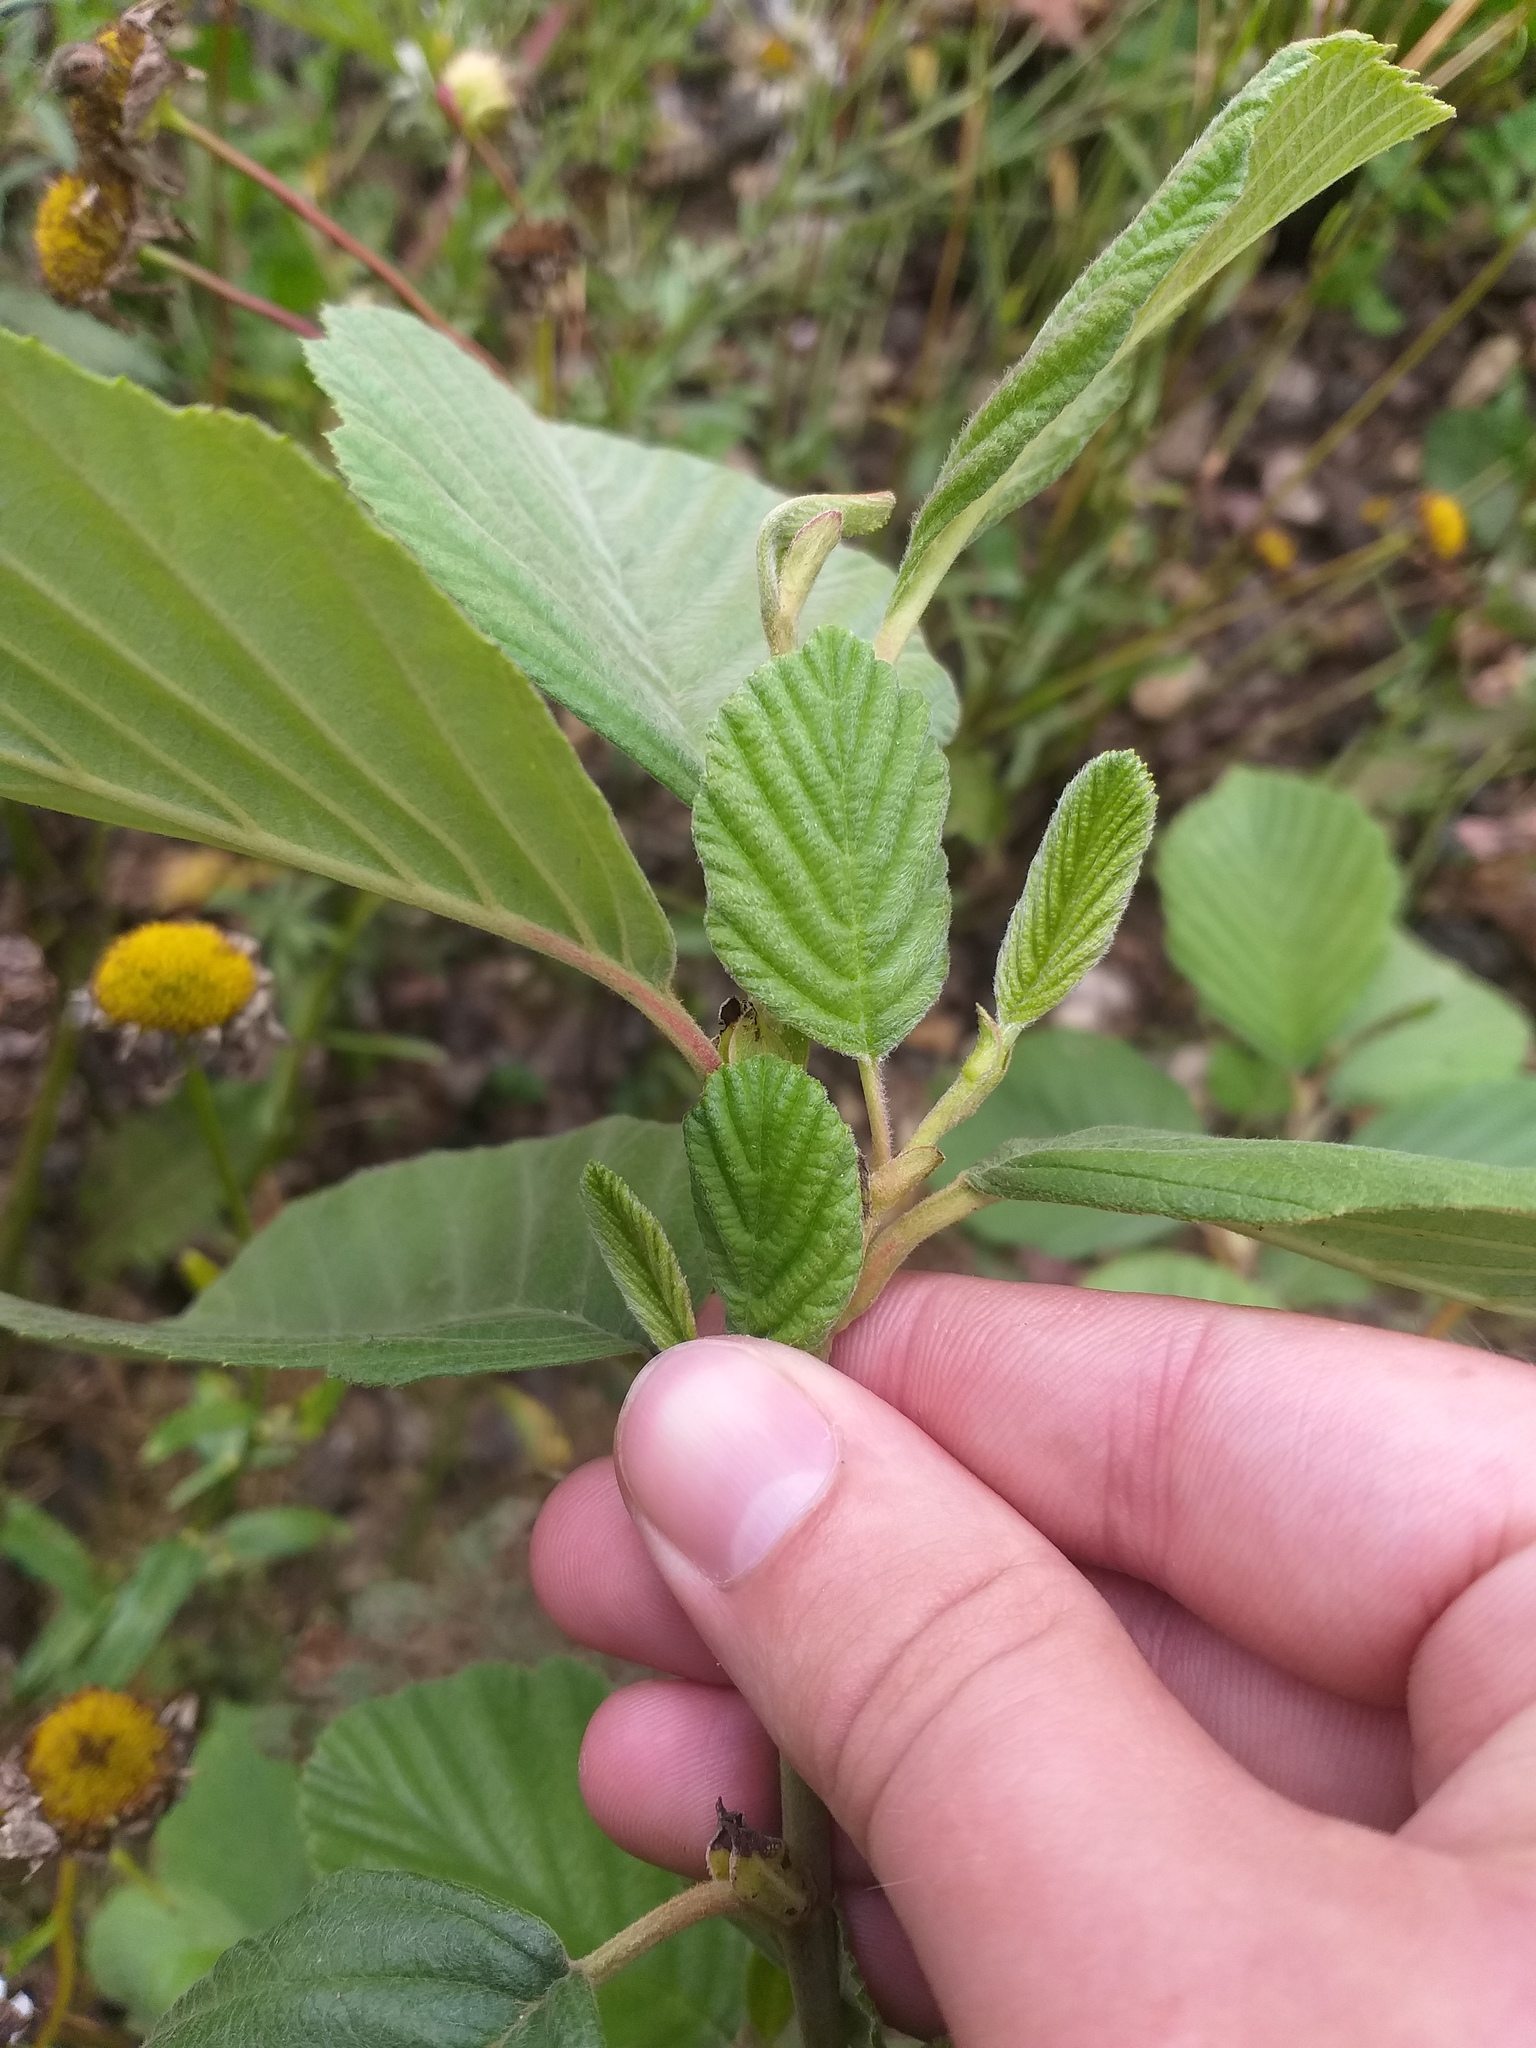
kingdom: Plantae
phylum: Tracheophyta
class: Magnoliopsida
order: Fagales
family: Betulaceae
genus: Alnus
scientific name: Alnus incana
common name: Grey alder
